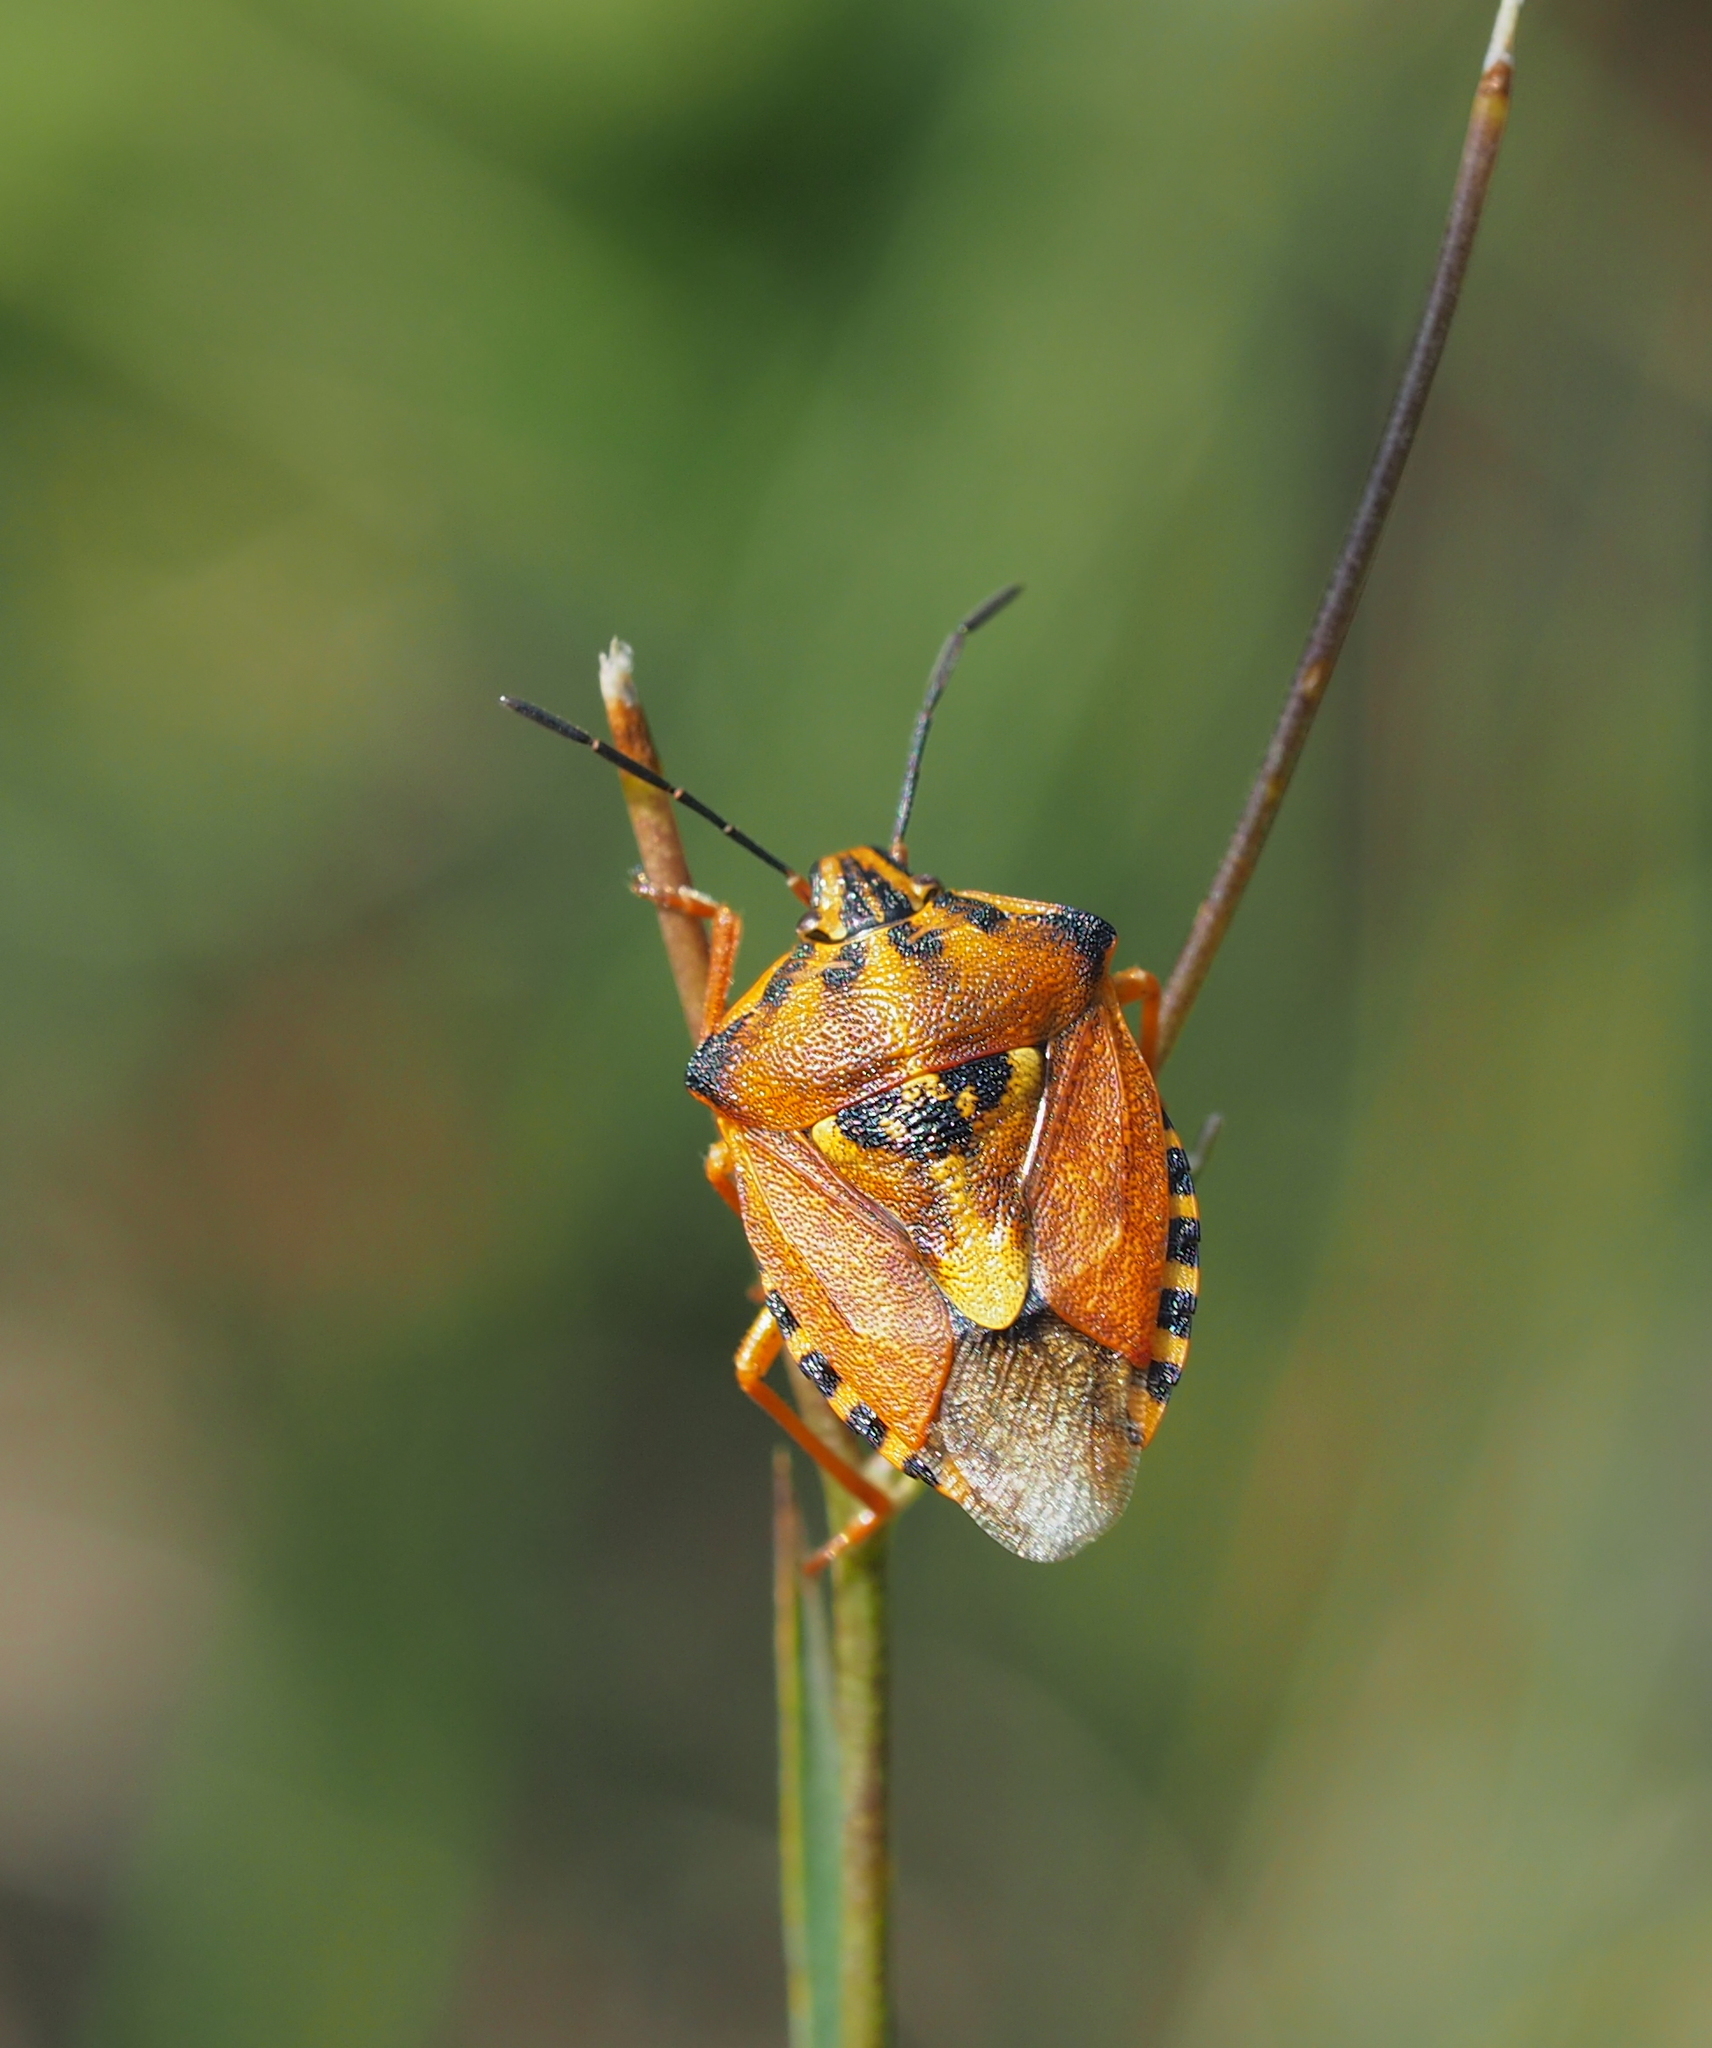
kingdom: Animalia
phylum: Arthropoda
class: Insecta
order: Hemiptera
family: Pentatomidae
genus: Carpocoris
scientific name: Carpocoris purpureipennis
